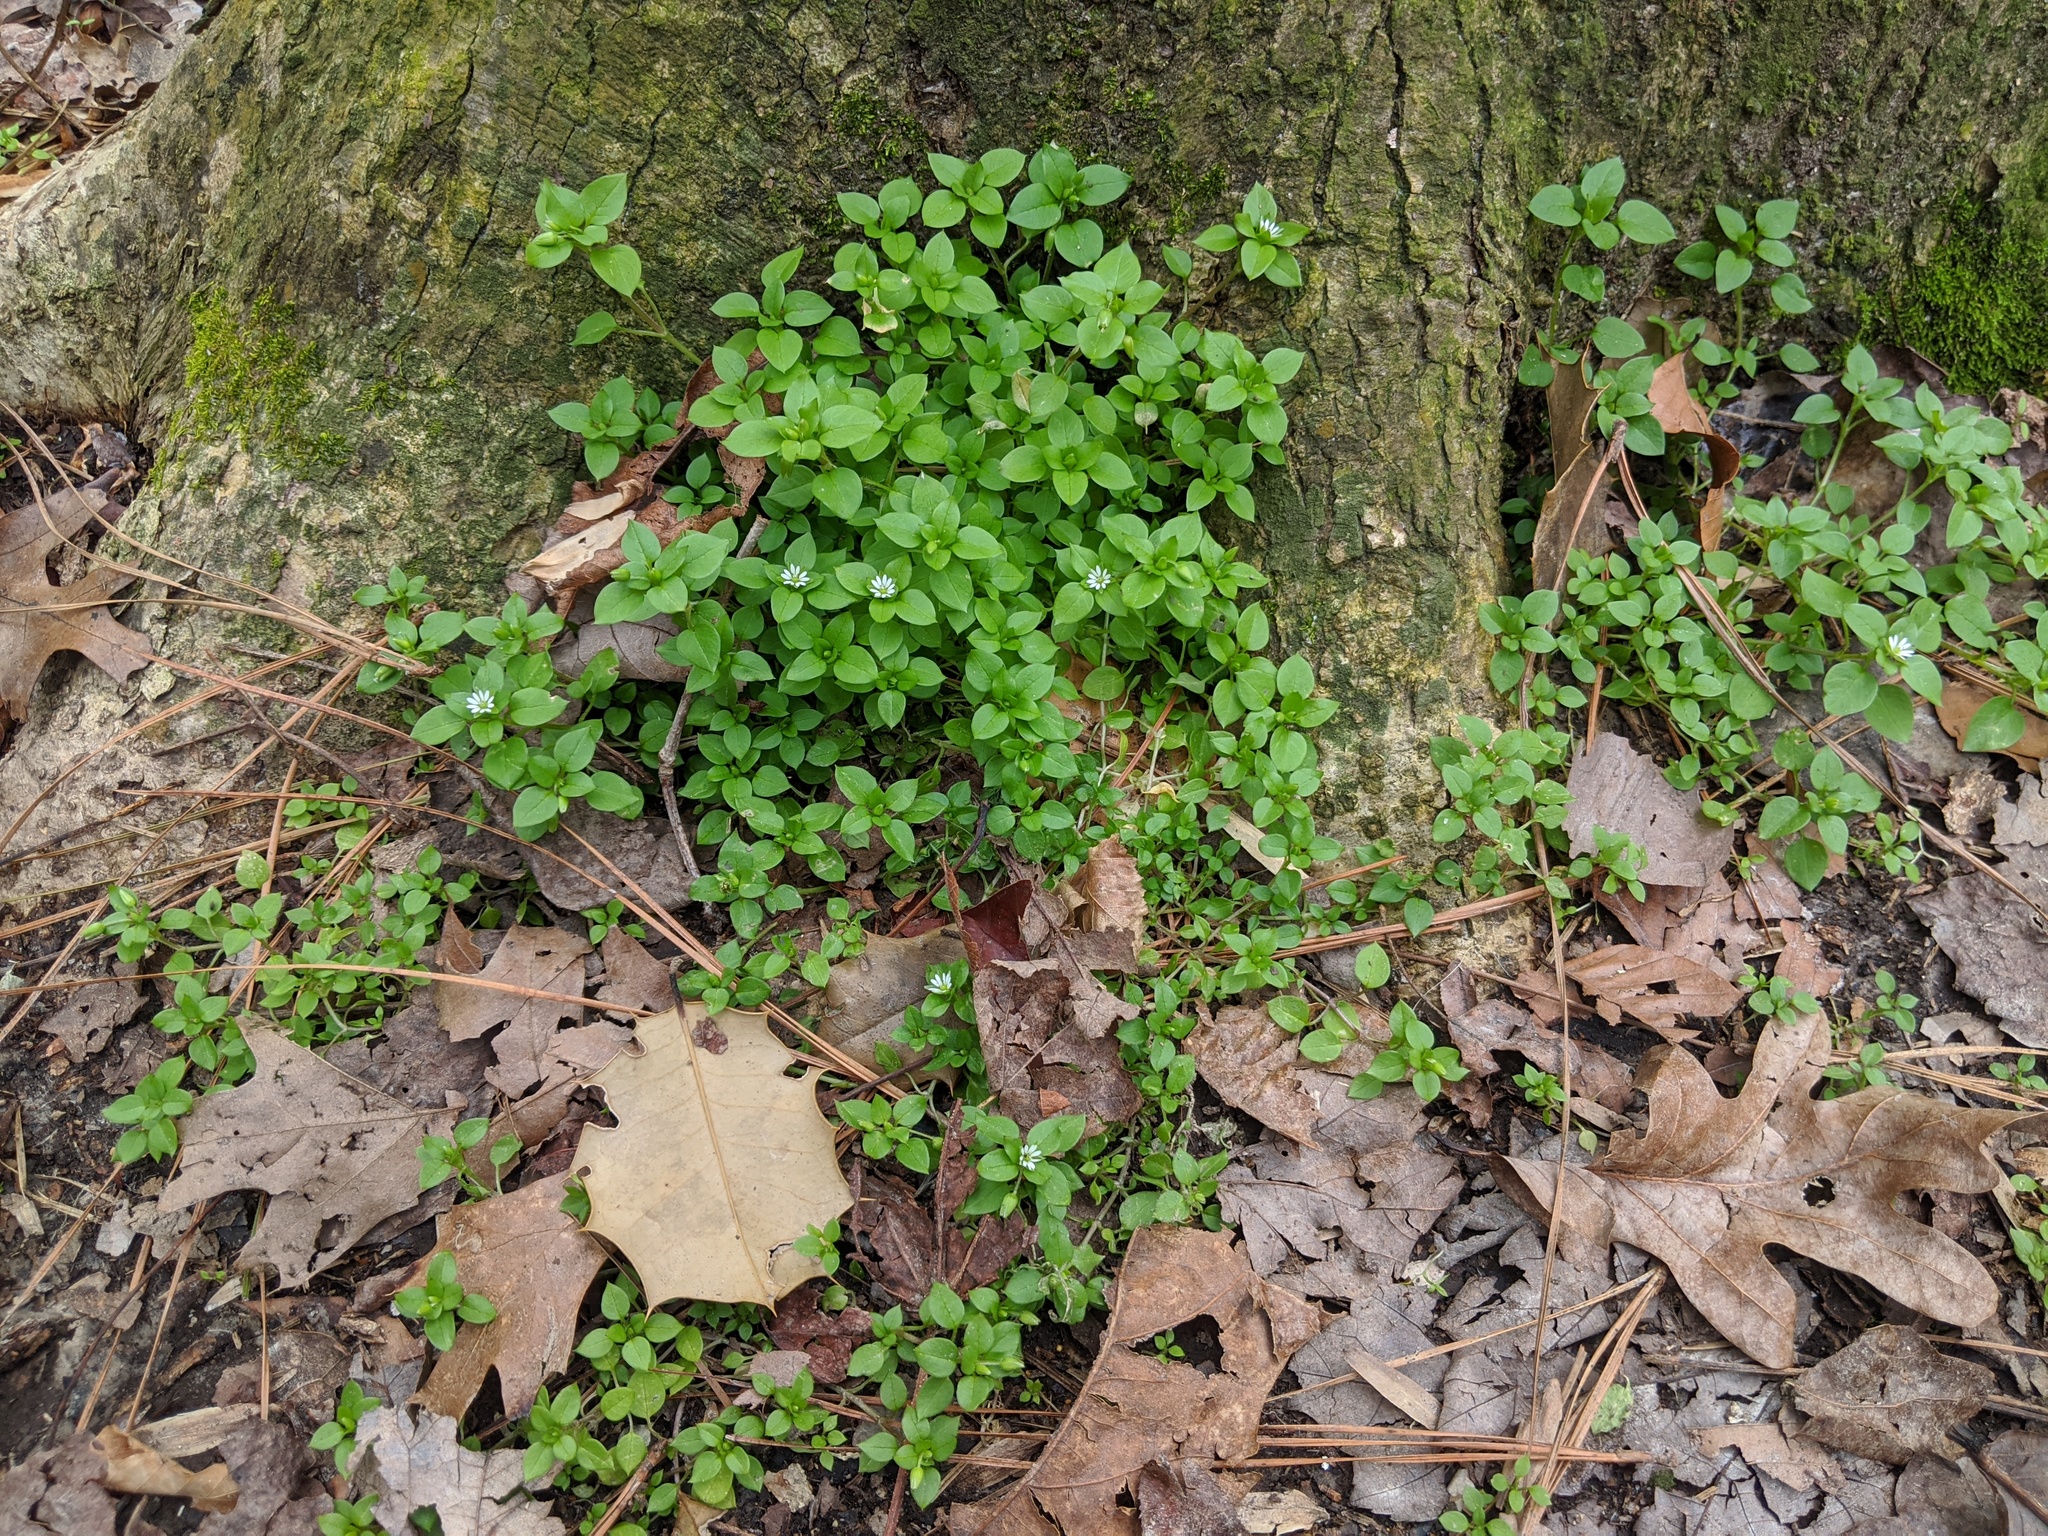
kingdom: Plantae
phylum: Tracheophyta
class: Magnoliopsida
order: Caryophyllales
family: Caryophyllaceae
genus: Stellaria
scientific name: Stellaria media
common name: Common chickweed
